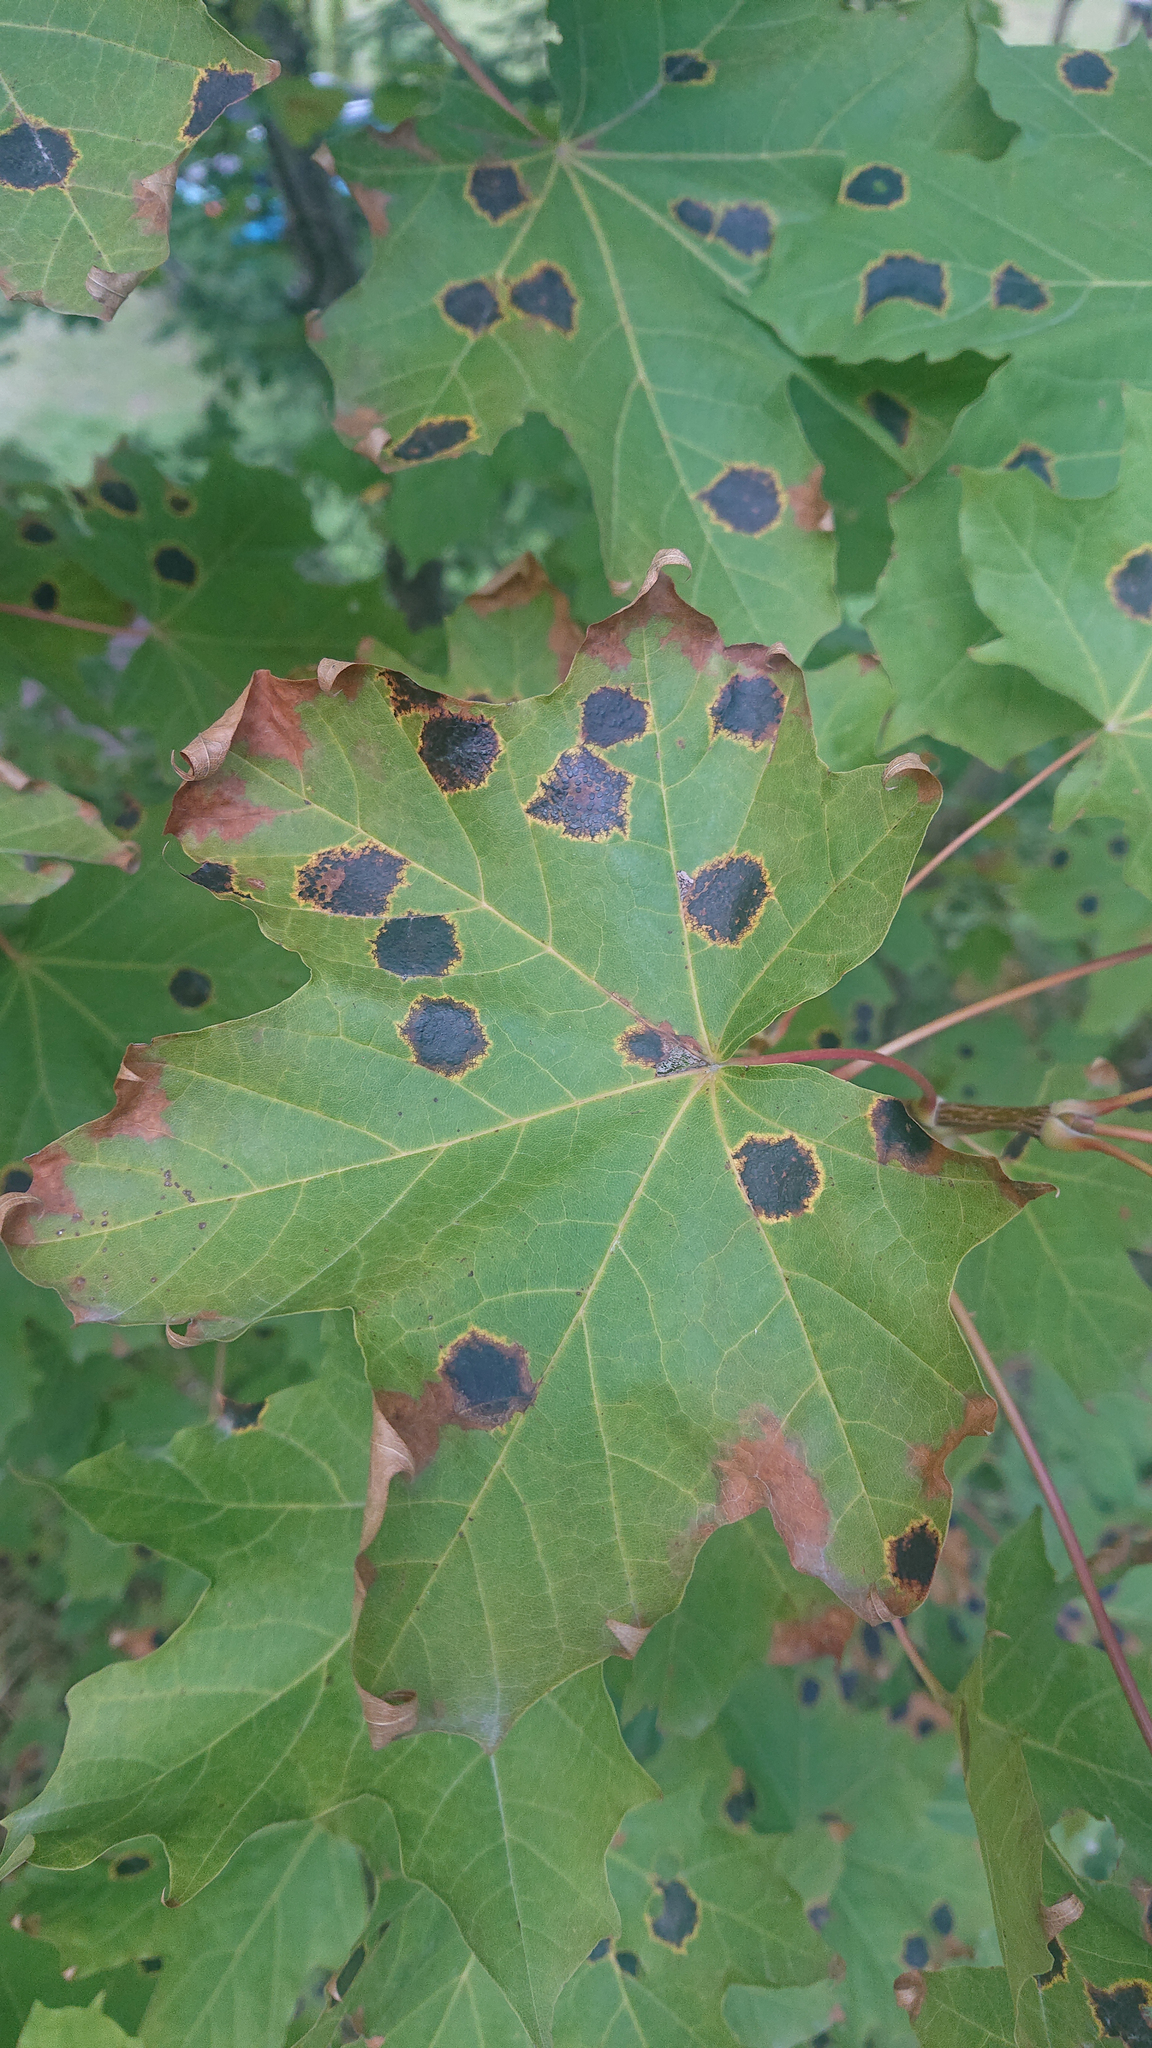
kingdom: Fungi
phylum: Ascomycota
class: Leotiomycetes
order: Rhytismatales
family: Rhytismataceae
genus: Rhytisma
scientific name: Rhytisma acerinum
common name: European tar spot
